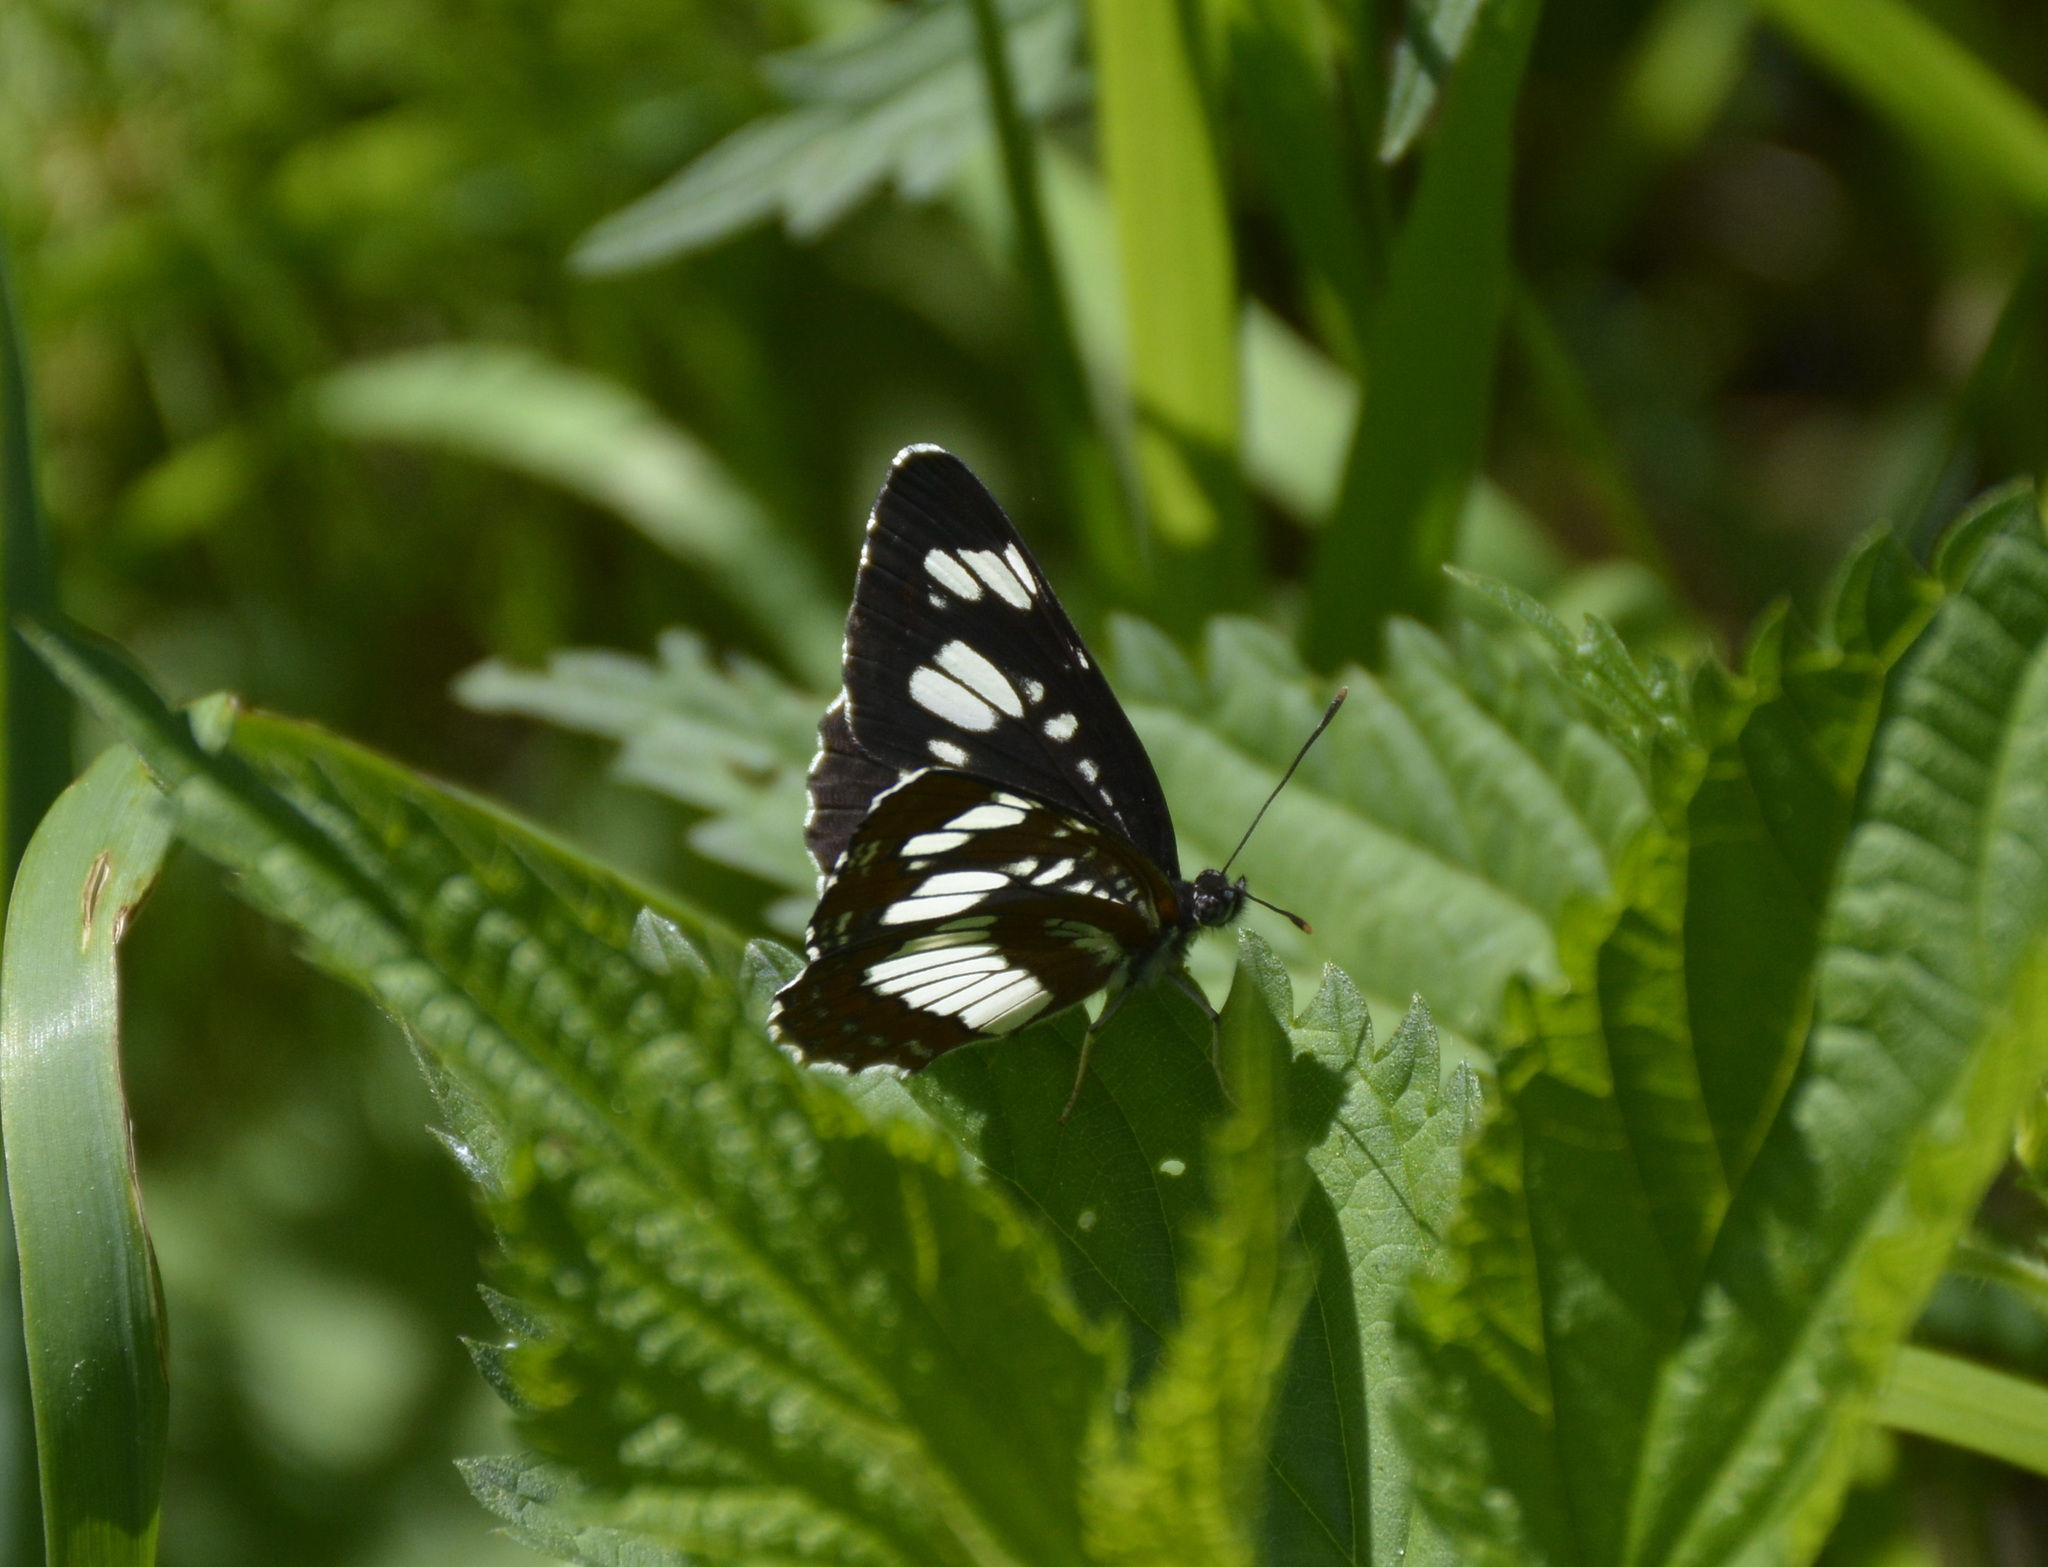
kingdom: Animalia
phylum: Arthropoda
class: Insecta
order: Lepidoptera
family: Nymphalidae
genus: Neptis
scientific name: Neptis rivularis
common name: Hungarian glider
